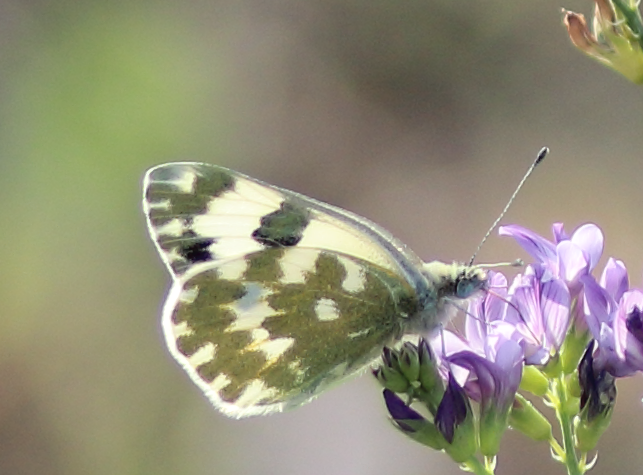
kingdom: Animalia
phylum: Arthropoda
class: Insecta
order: Lepidoptera
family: Pieridae
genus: Pontia
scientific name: Pontia edusa
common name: Eastern bath white
